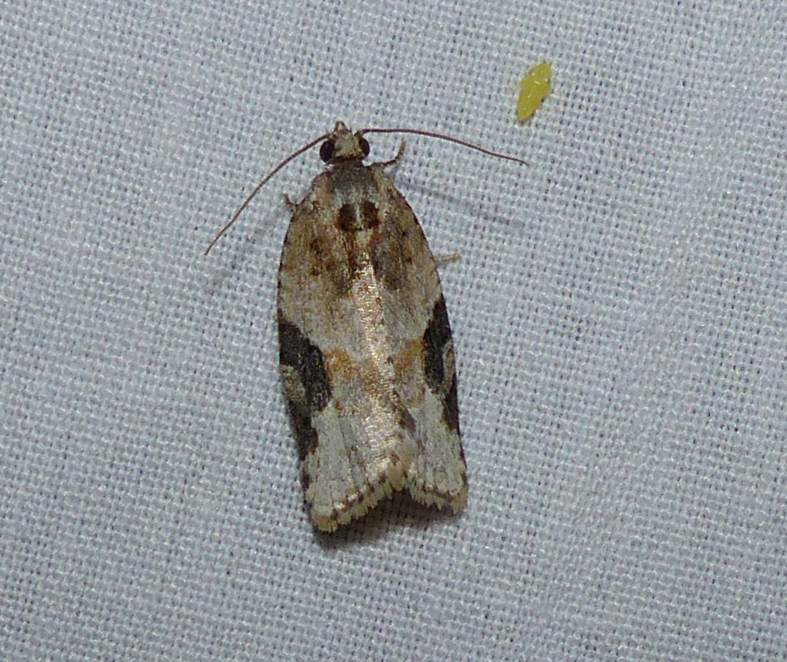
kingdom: Animalia
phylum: Arthropoda
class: Insecta
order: Lepidoptera
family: Tortricidae
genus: Argyrotaenia
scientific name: Argyrotaenia mariana
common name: Gray-banded leafroller moth
